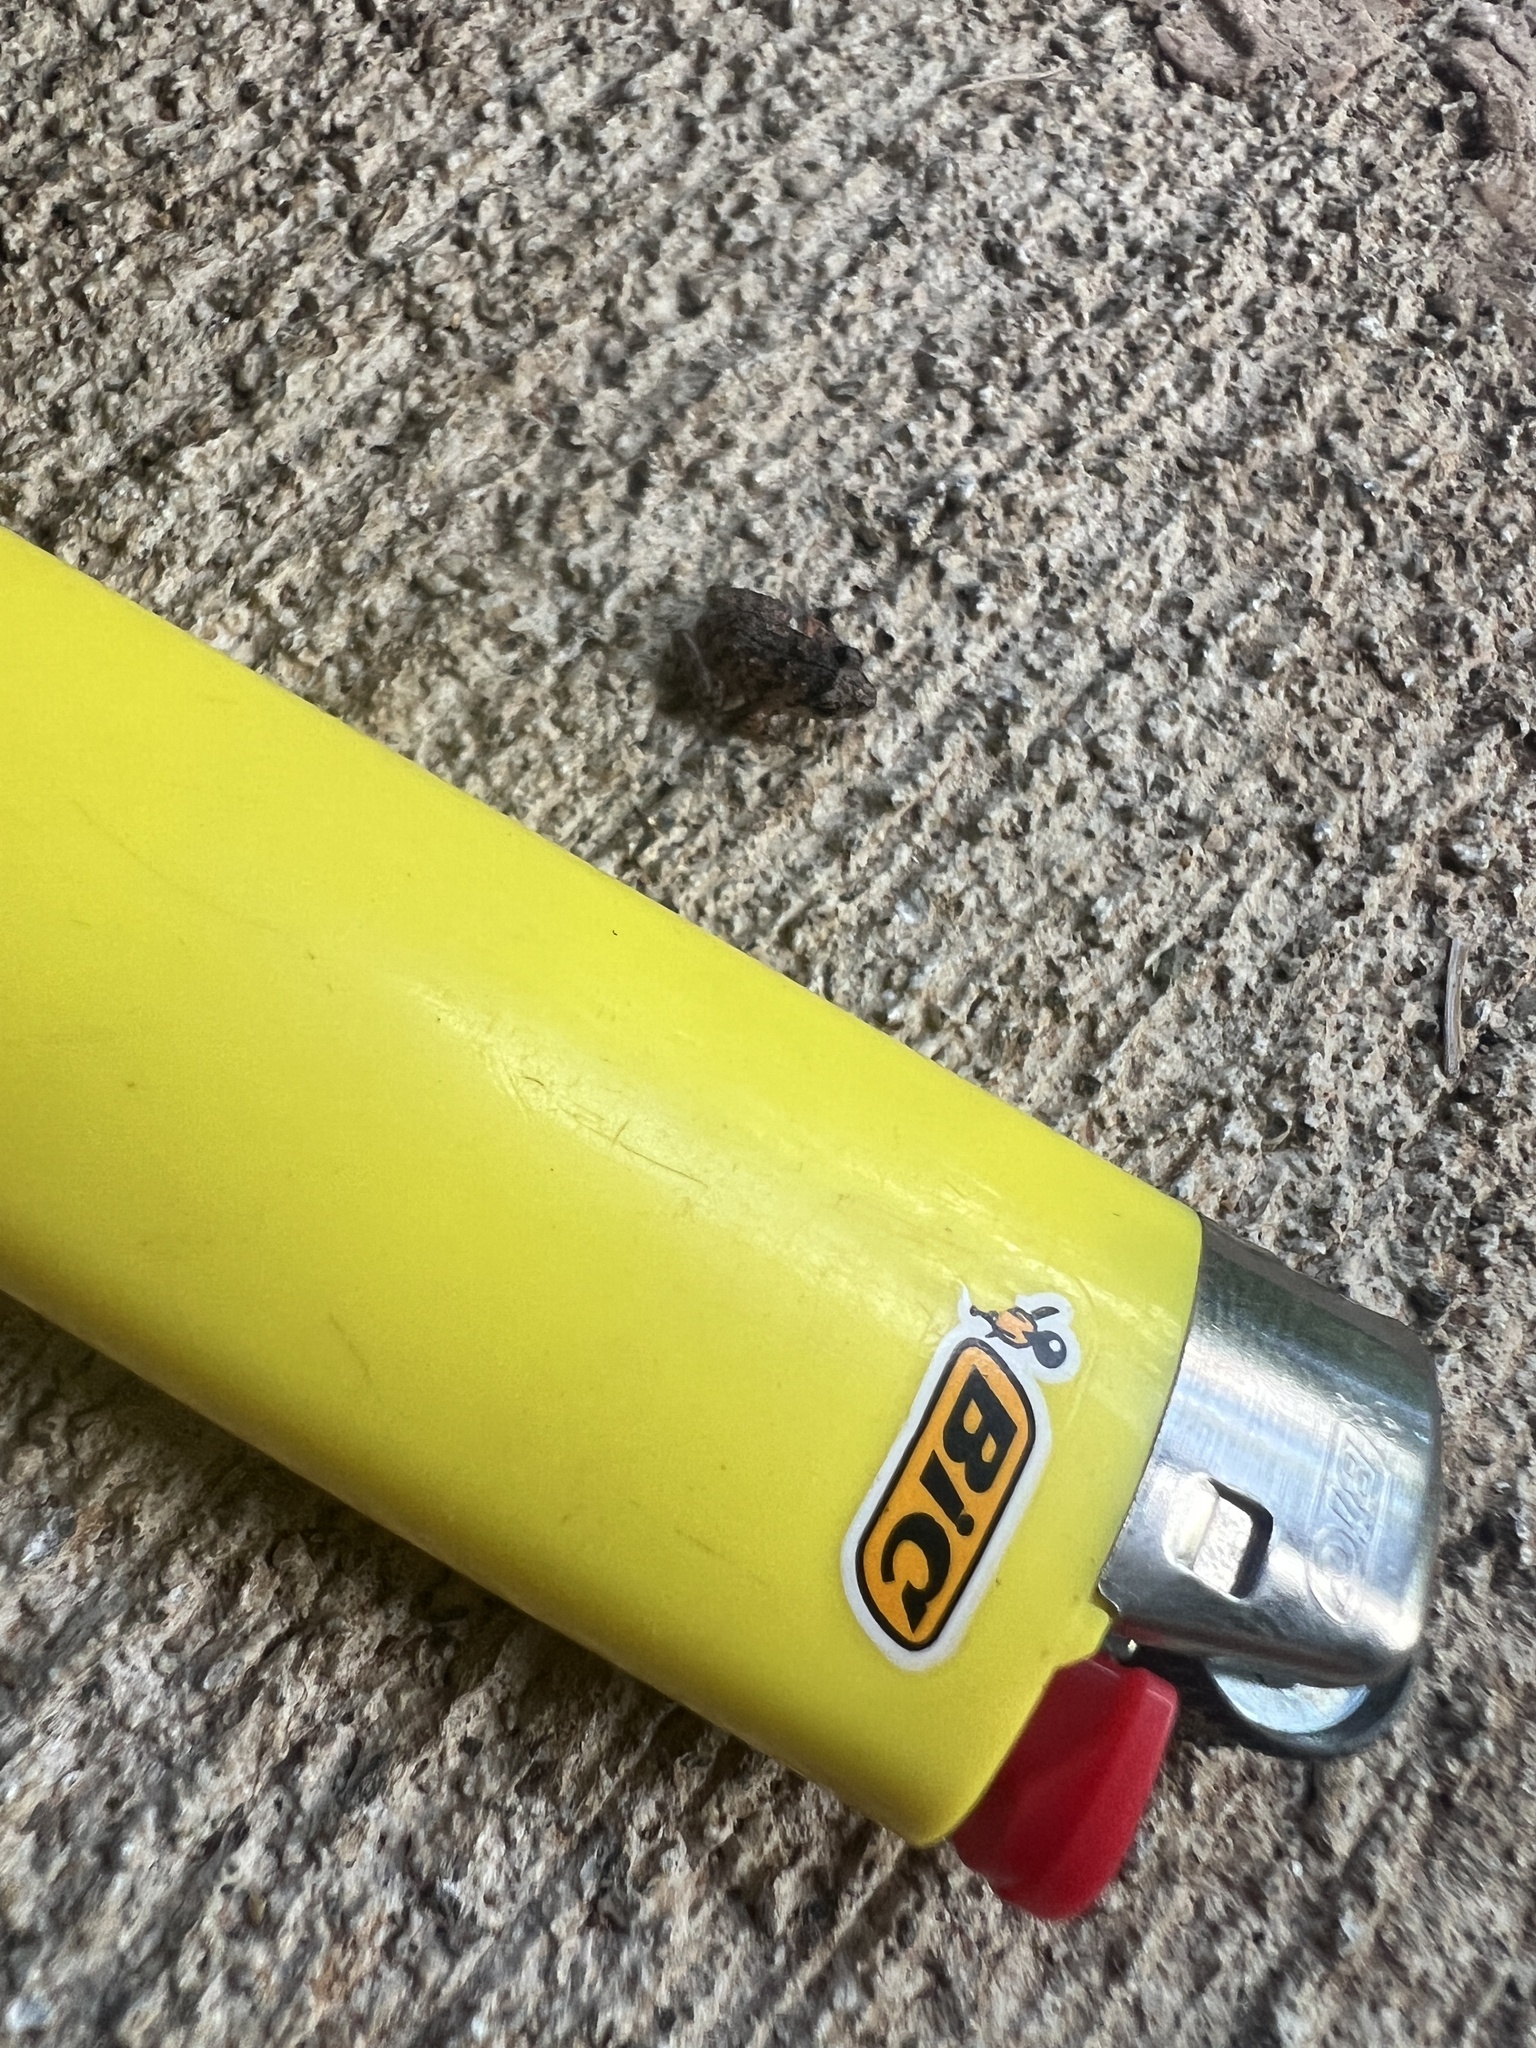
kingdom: Animalia
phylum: Chordata
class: Amphibia
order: Anura
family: Eleutherodactylidae
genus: Eleutherodactylus
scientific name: Eleutherodactylus planirostris
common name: Greenhouse frog
